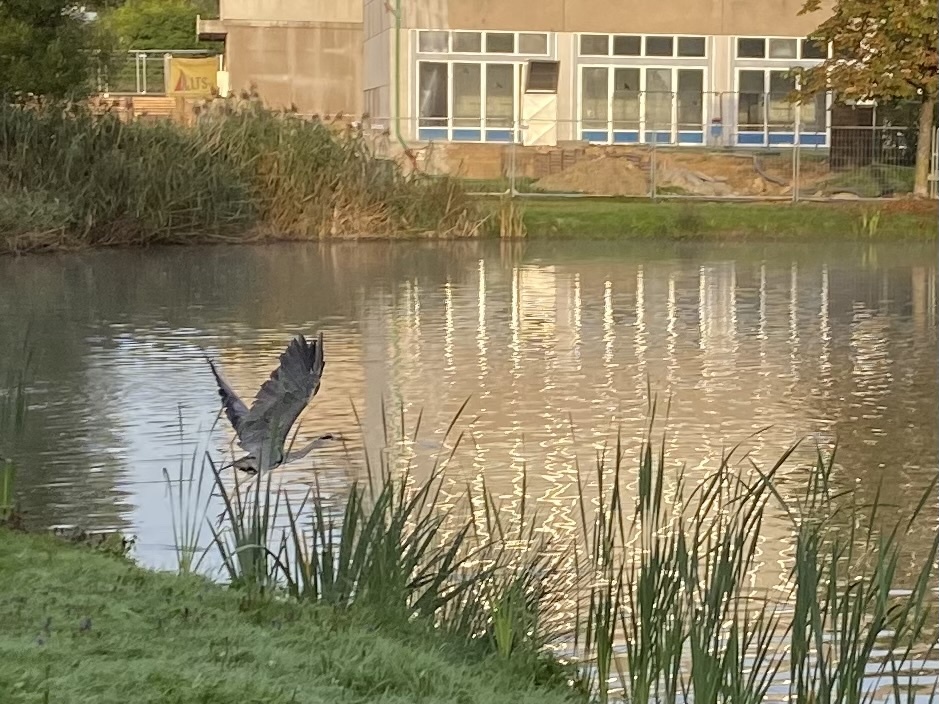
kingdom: Animalia
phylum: Chordata
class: Aves
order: Pelecaniformes
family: Ardeidae
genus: Ardea
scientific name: Ardea cinerea
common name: Grey heron
